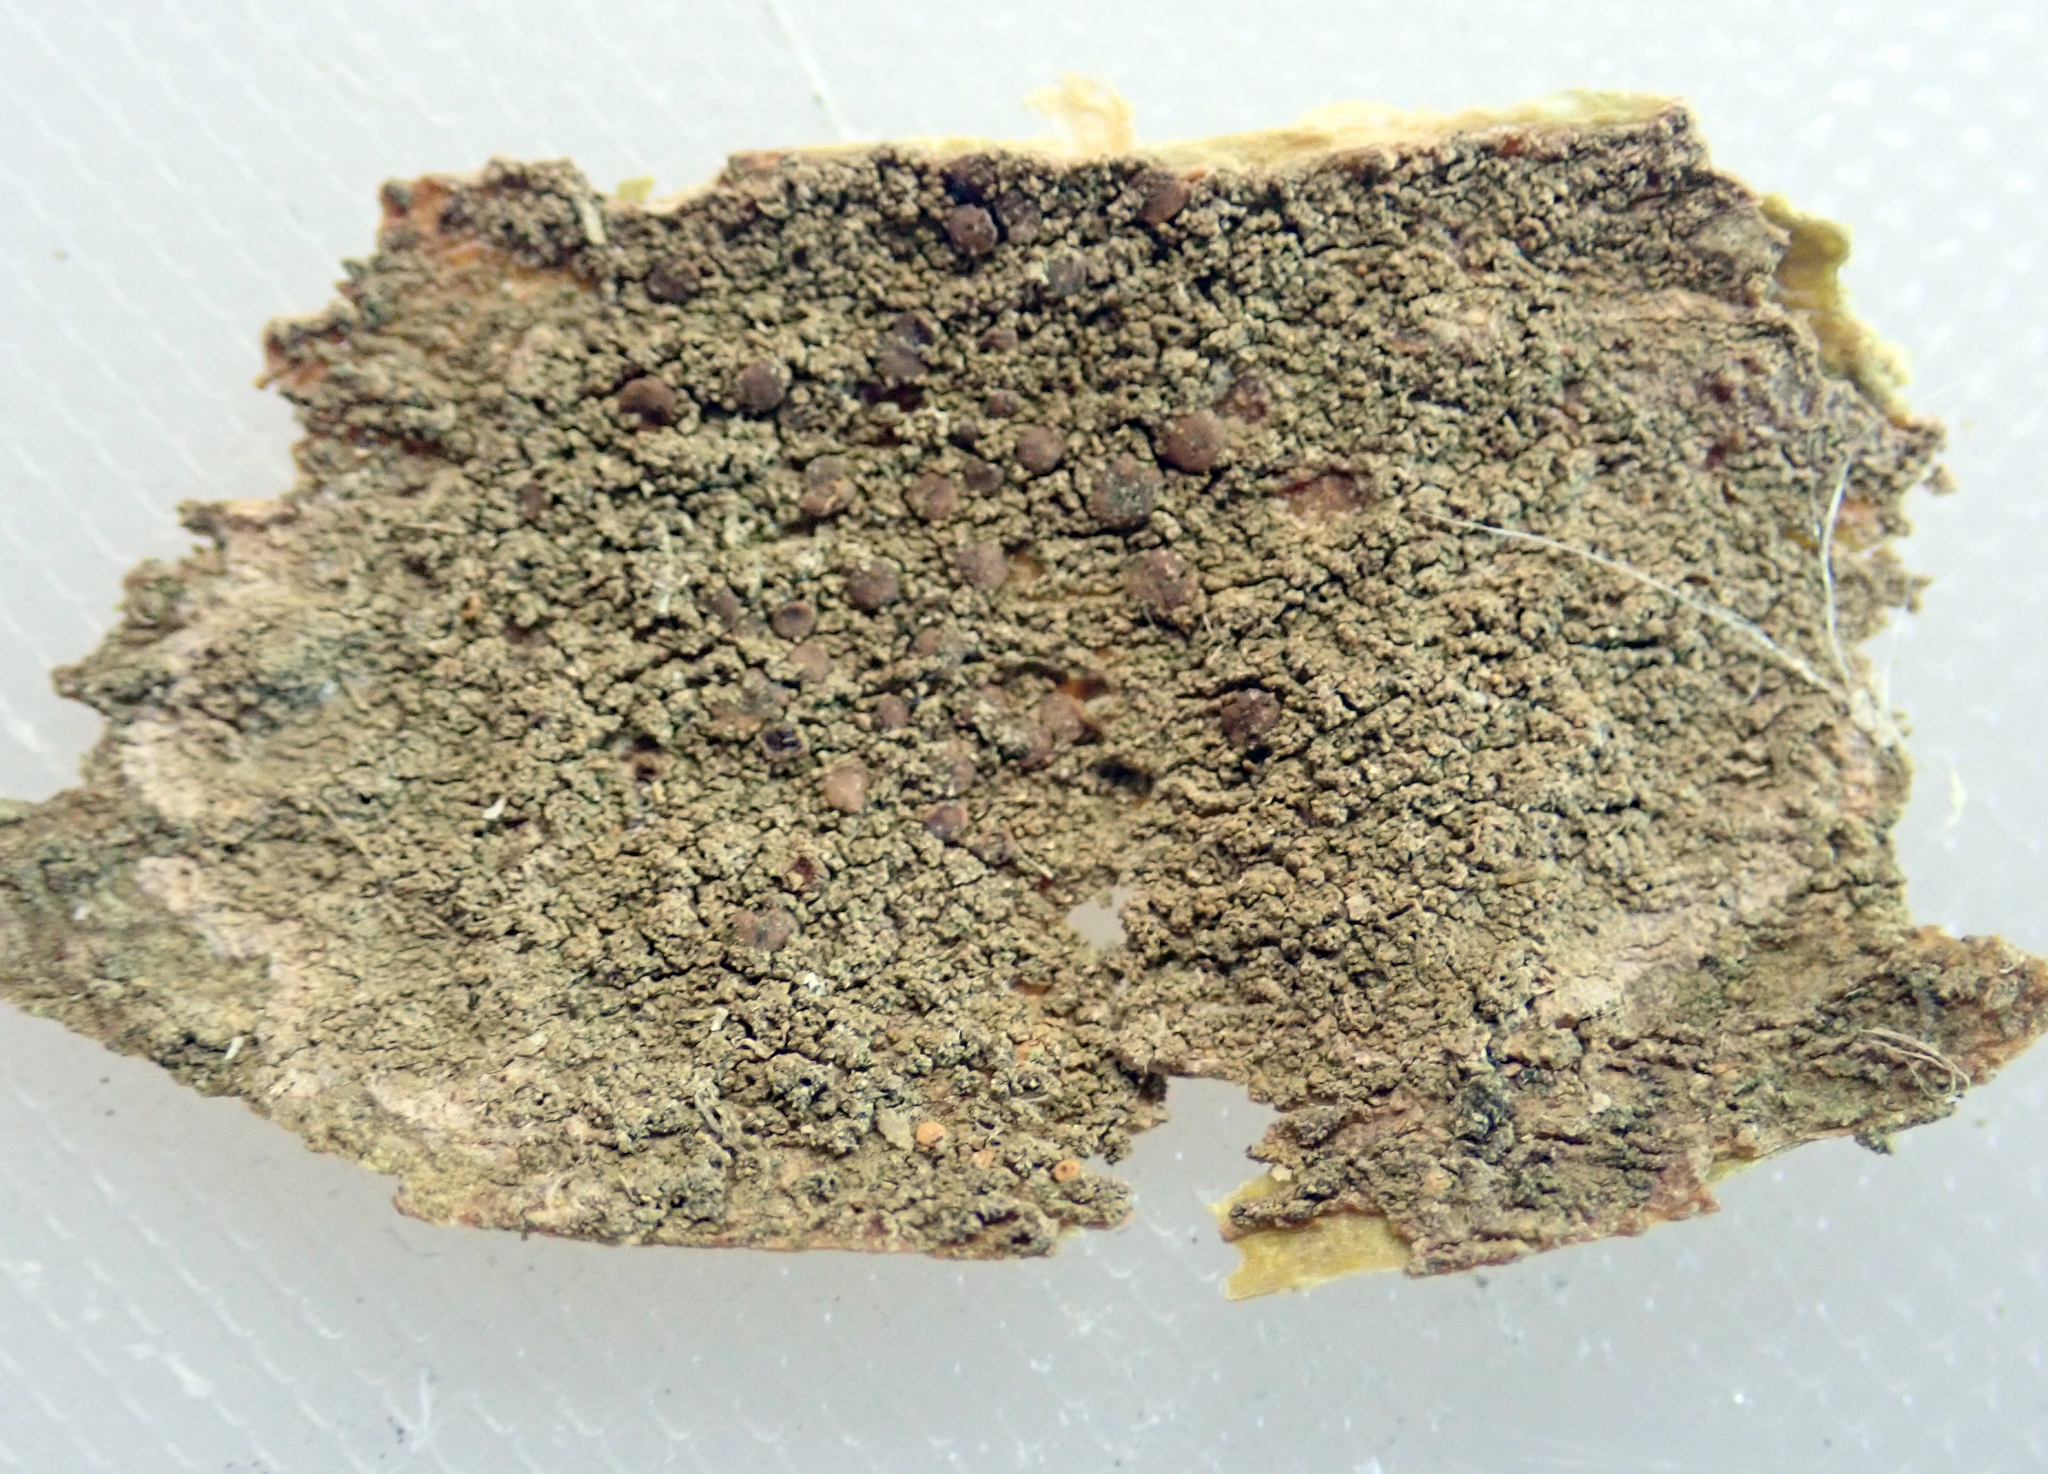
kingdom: Fungi
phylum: Ascomycota
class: Lecanoromycetes
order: Lecanorales
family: Ramalinaceae
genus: Bacidia
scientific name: Bacidia laurocerasi
